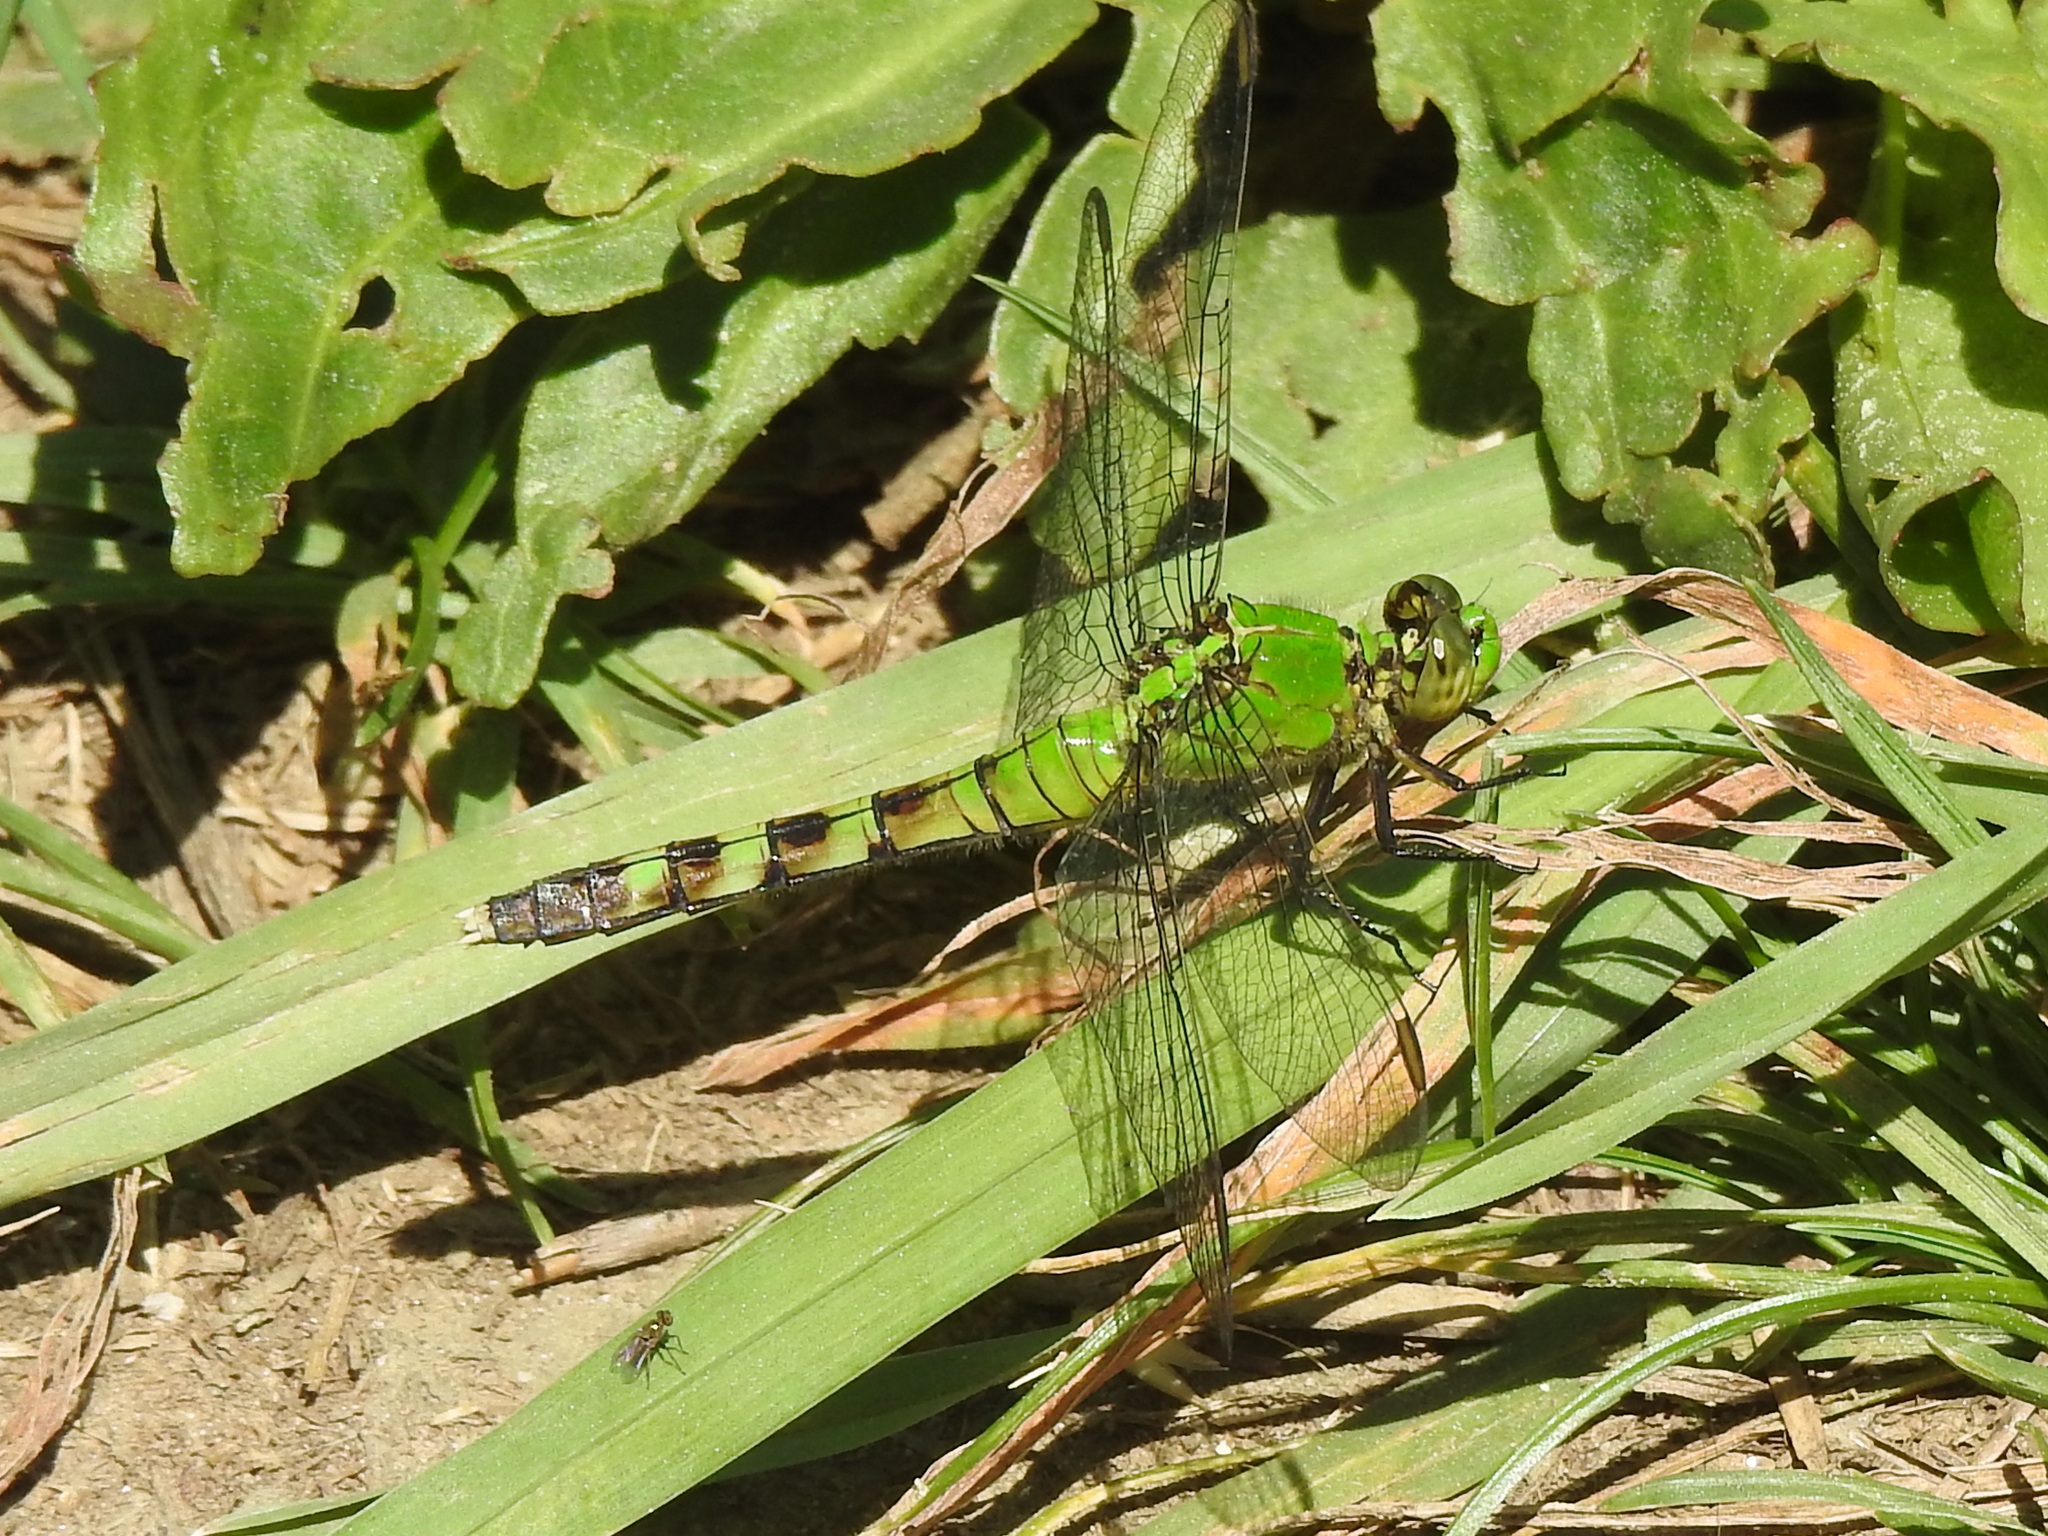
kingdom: Animalia
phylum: Arthropoda
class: Insecta
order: Odonata
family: Libellulidae
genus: Erythemis
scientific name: Erythemis simplicicollis
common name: Eastern pondhawk
